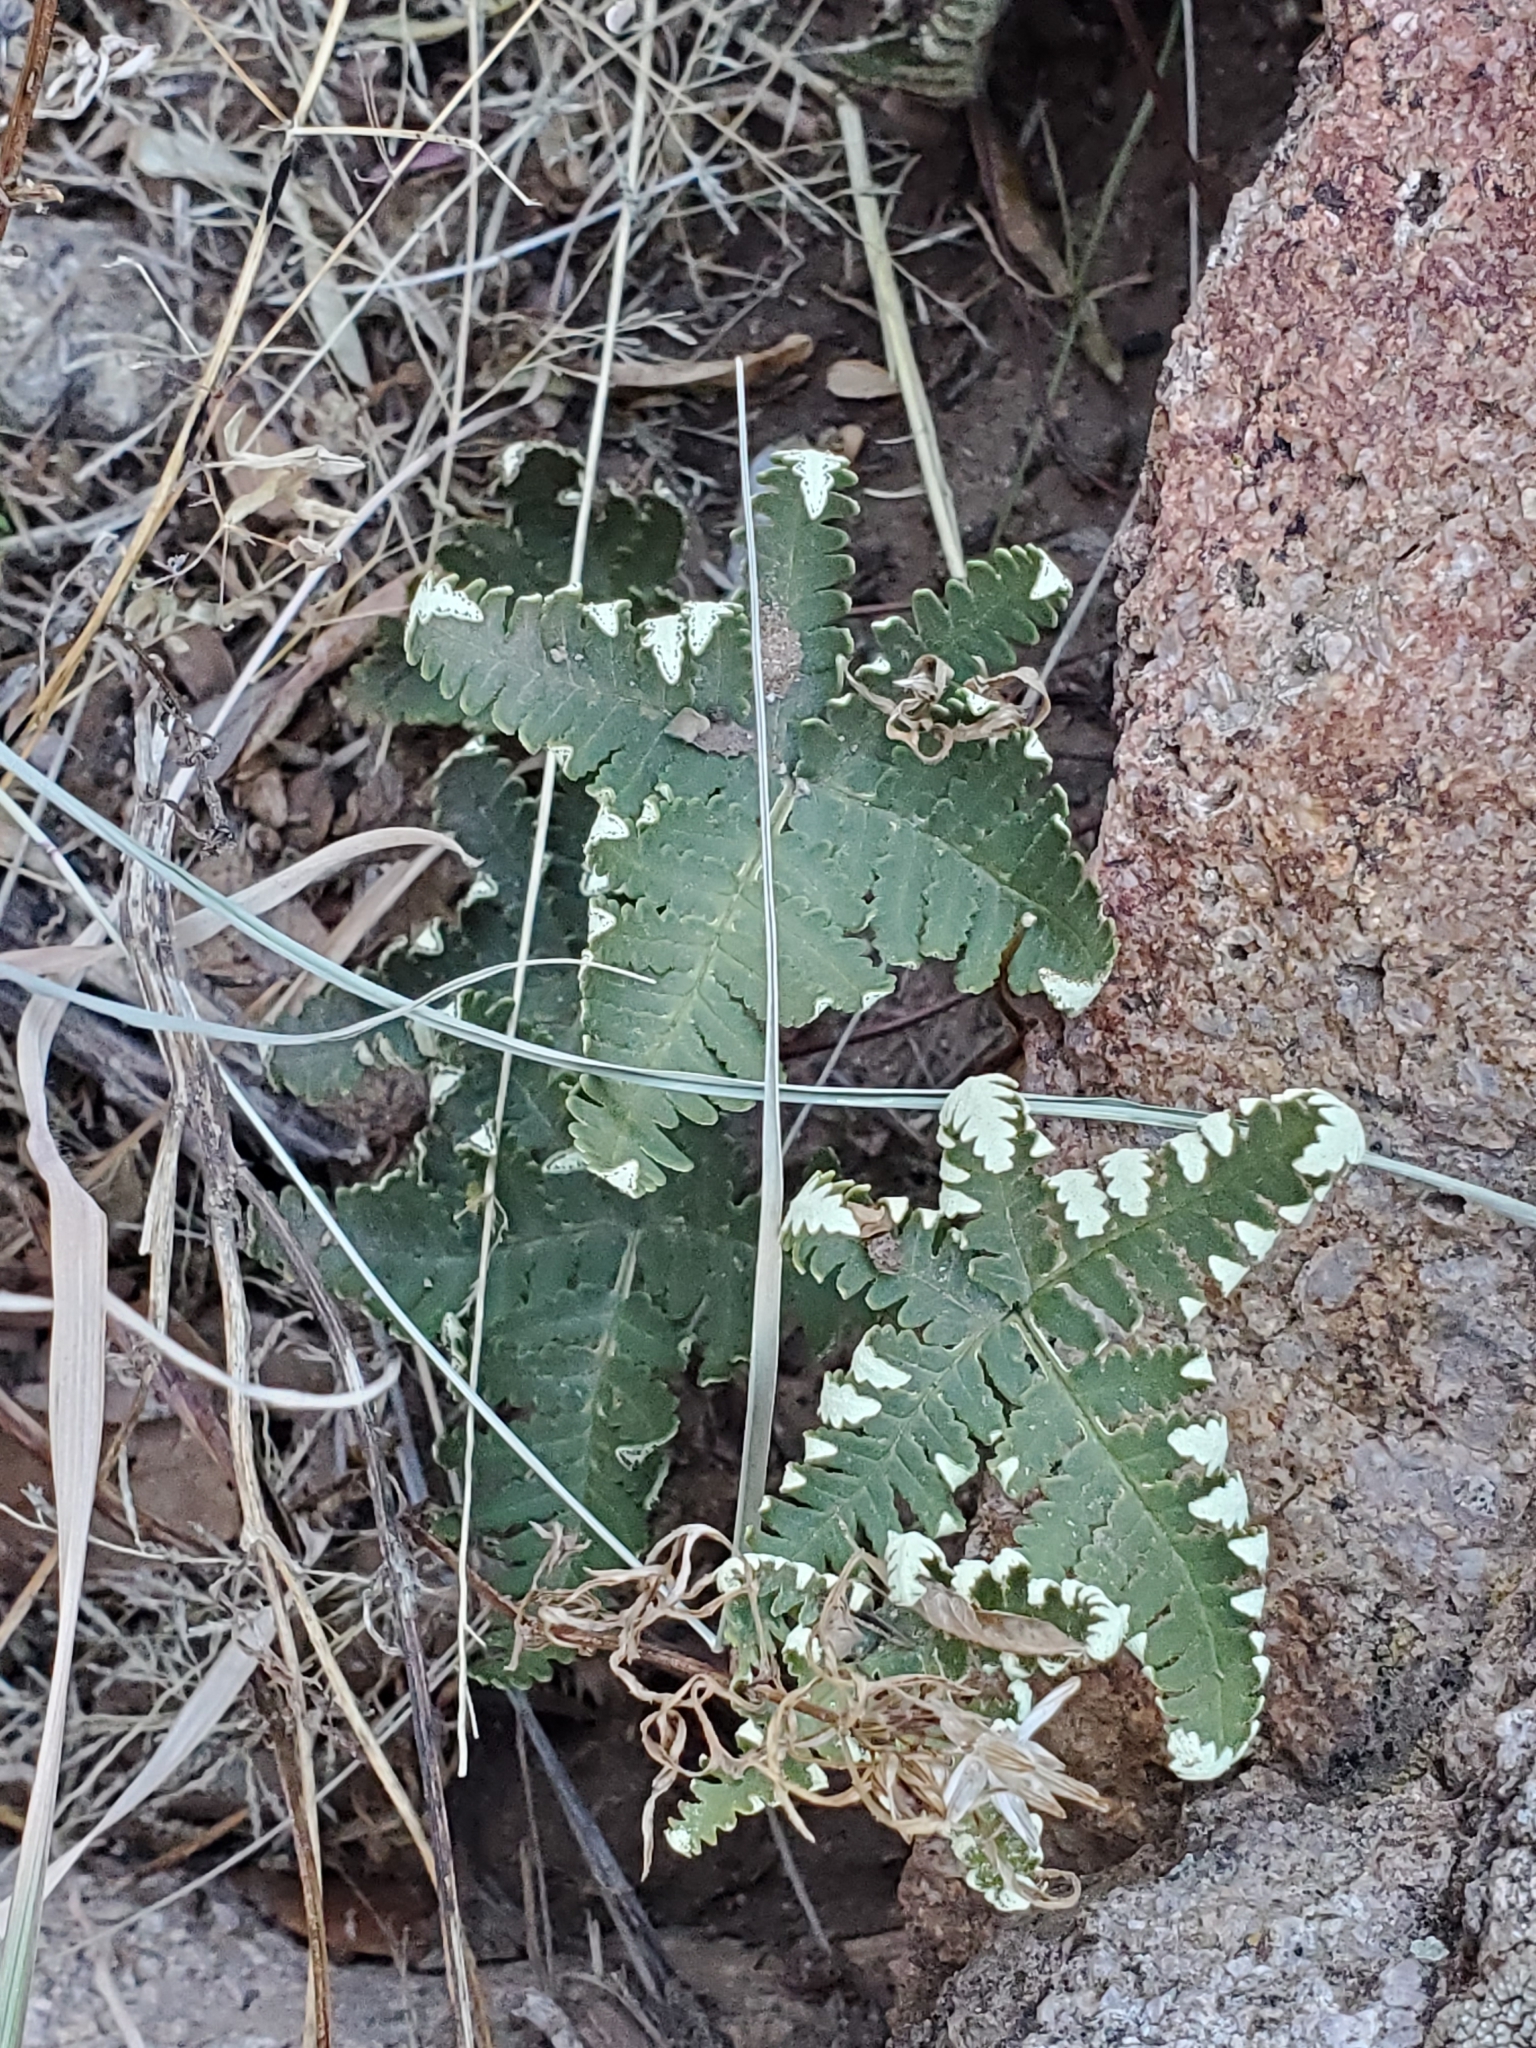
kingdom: Plantae
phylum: Tracheophyta
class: Polypodiopsida
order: Polypodiales
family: Pteridaceae
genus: Notholaena
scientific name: Notholaena standleyi
